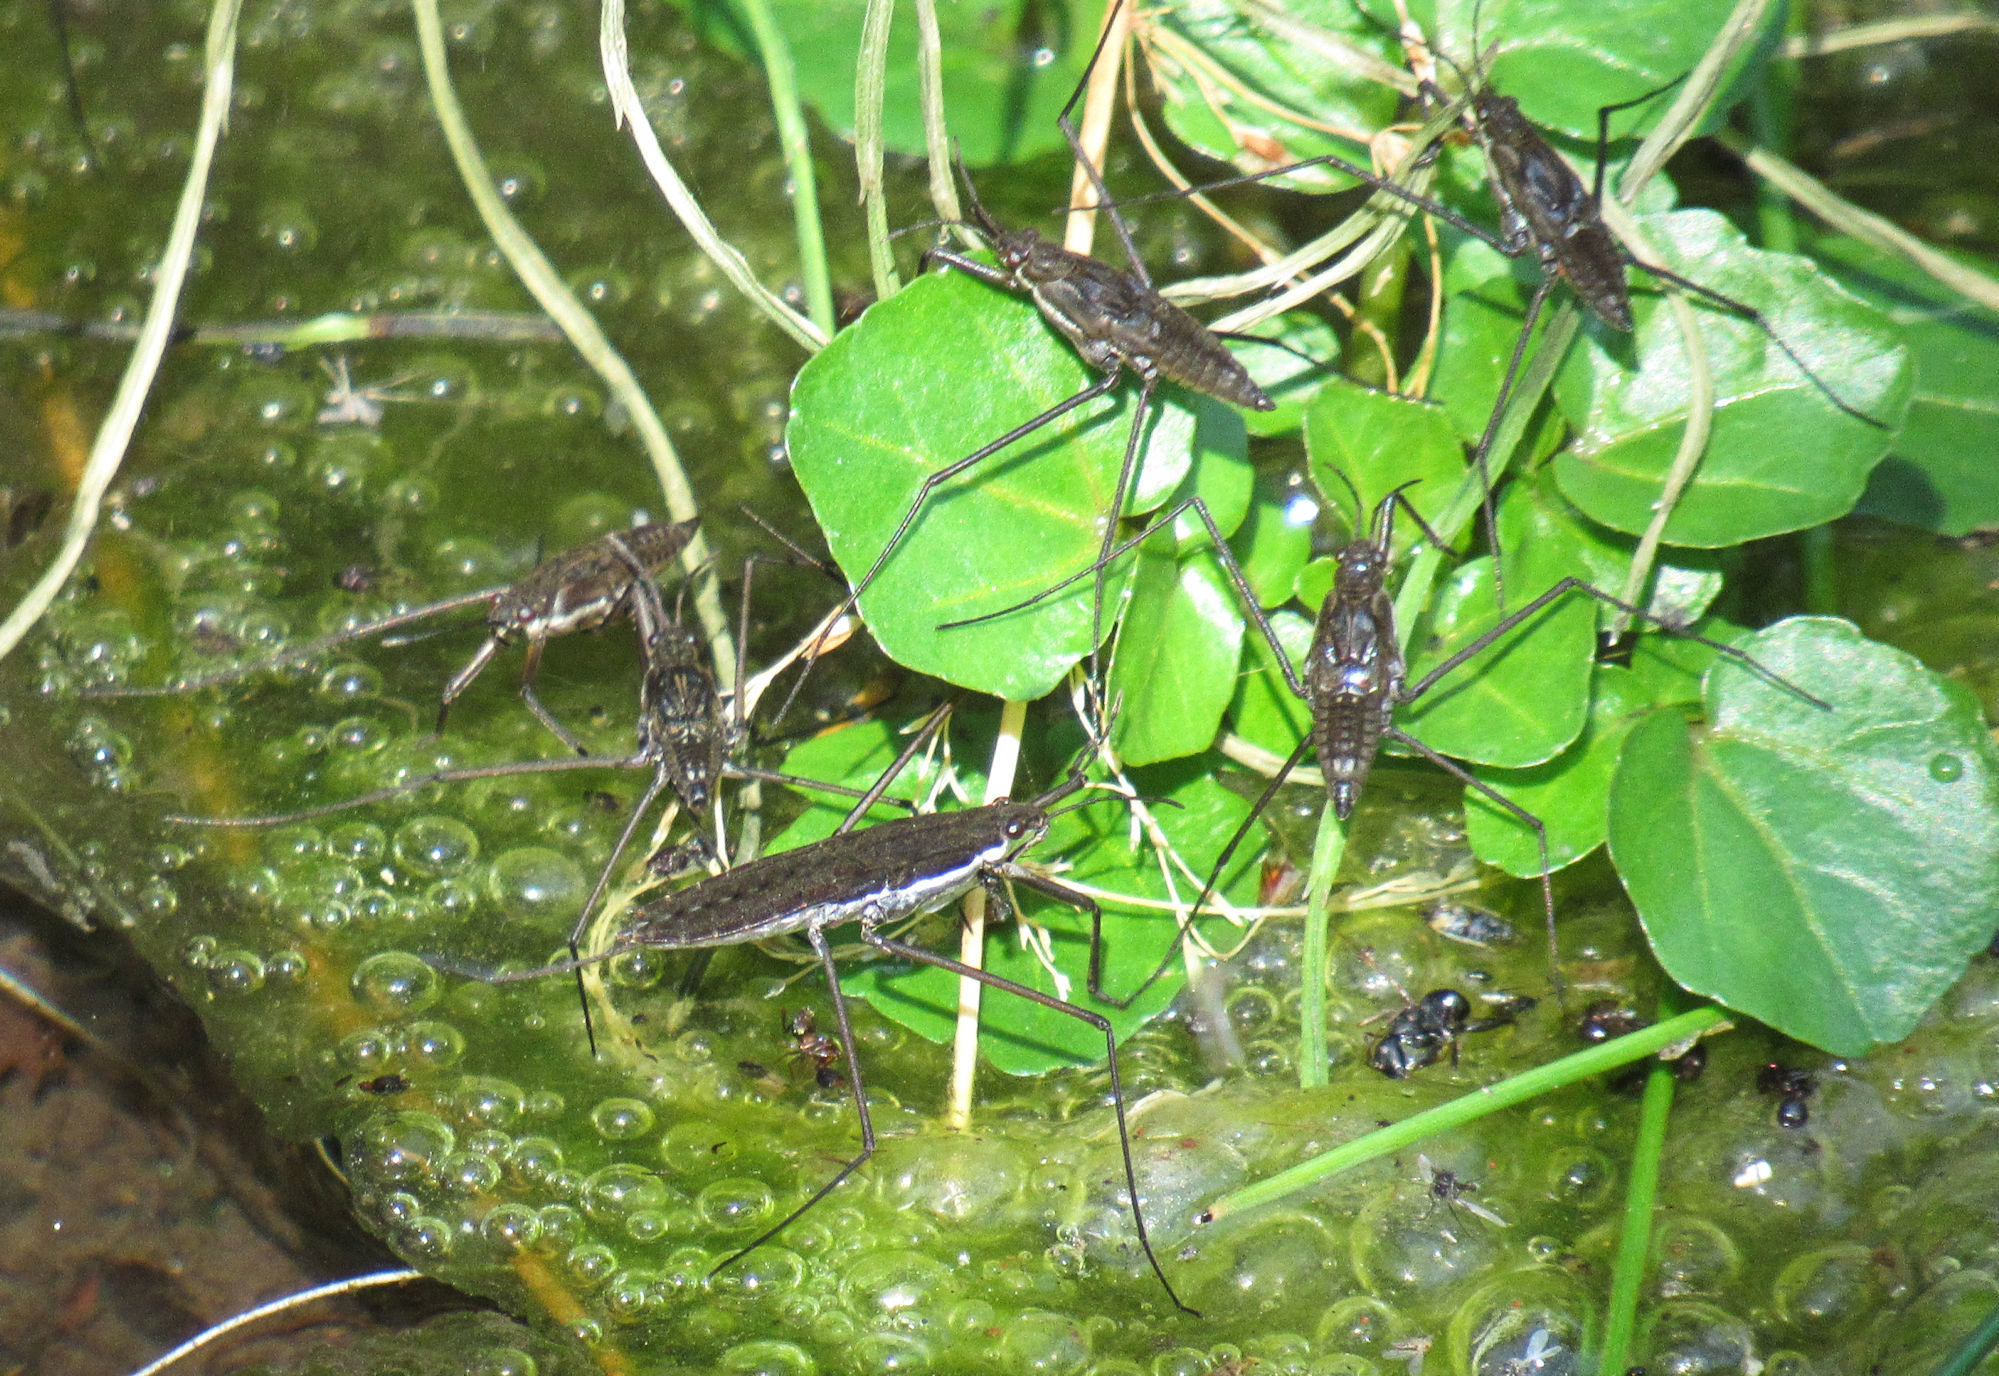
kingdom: Animalia
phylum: Arthropoda
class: Insecta
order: Hemiptera
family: Gerridae
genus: Aquarius
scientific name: Aquarius remigis
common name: Common water strider
